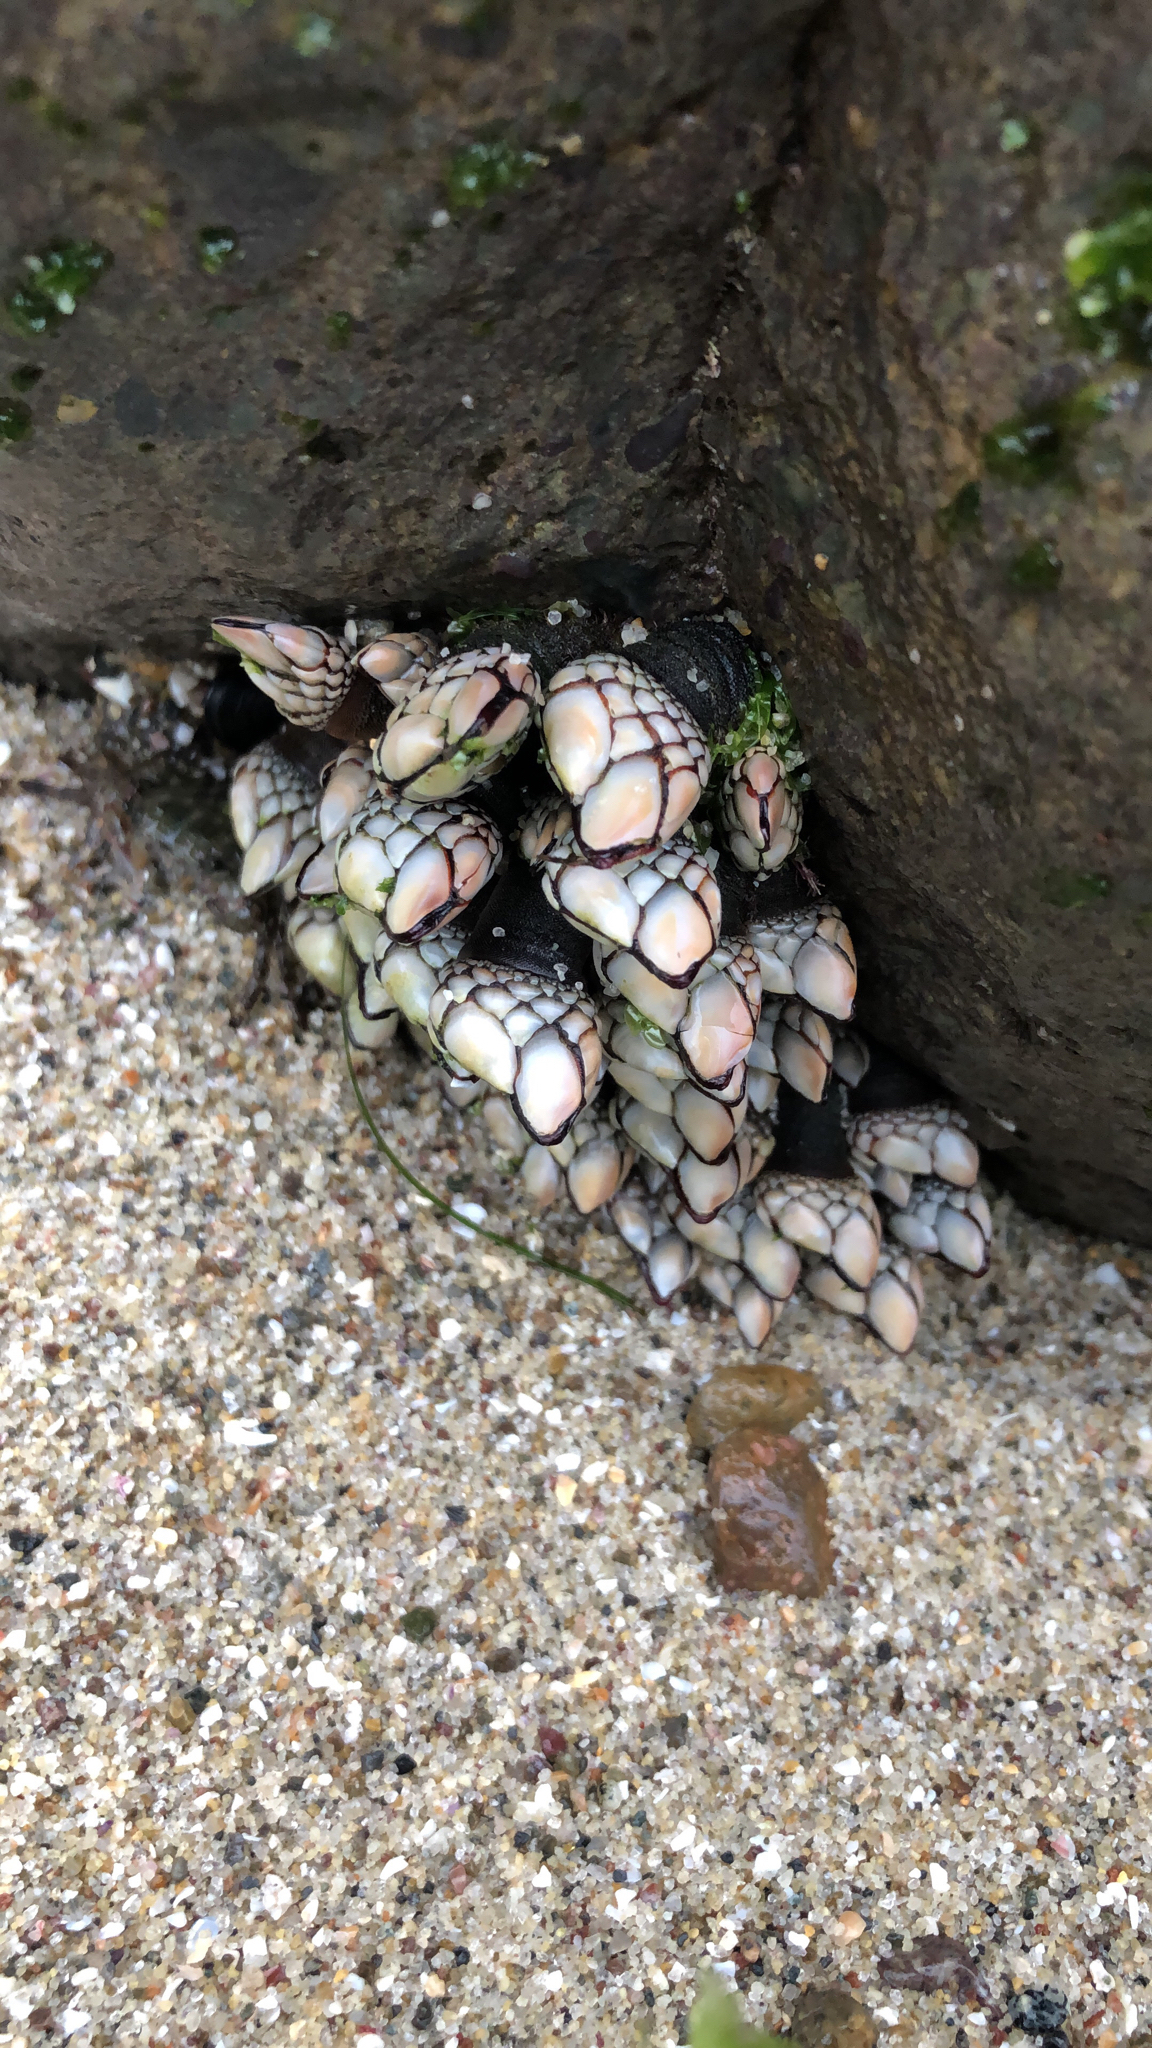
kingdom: Animalia
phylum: Arthropoda
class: Maxillopoda
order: Pedunculata
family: Pollicipedidae
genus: Pollicipes
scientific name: Pollicipes polymerus
